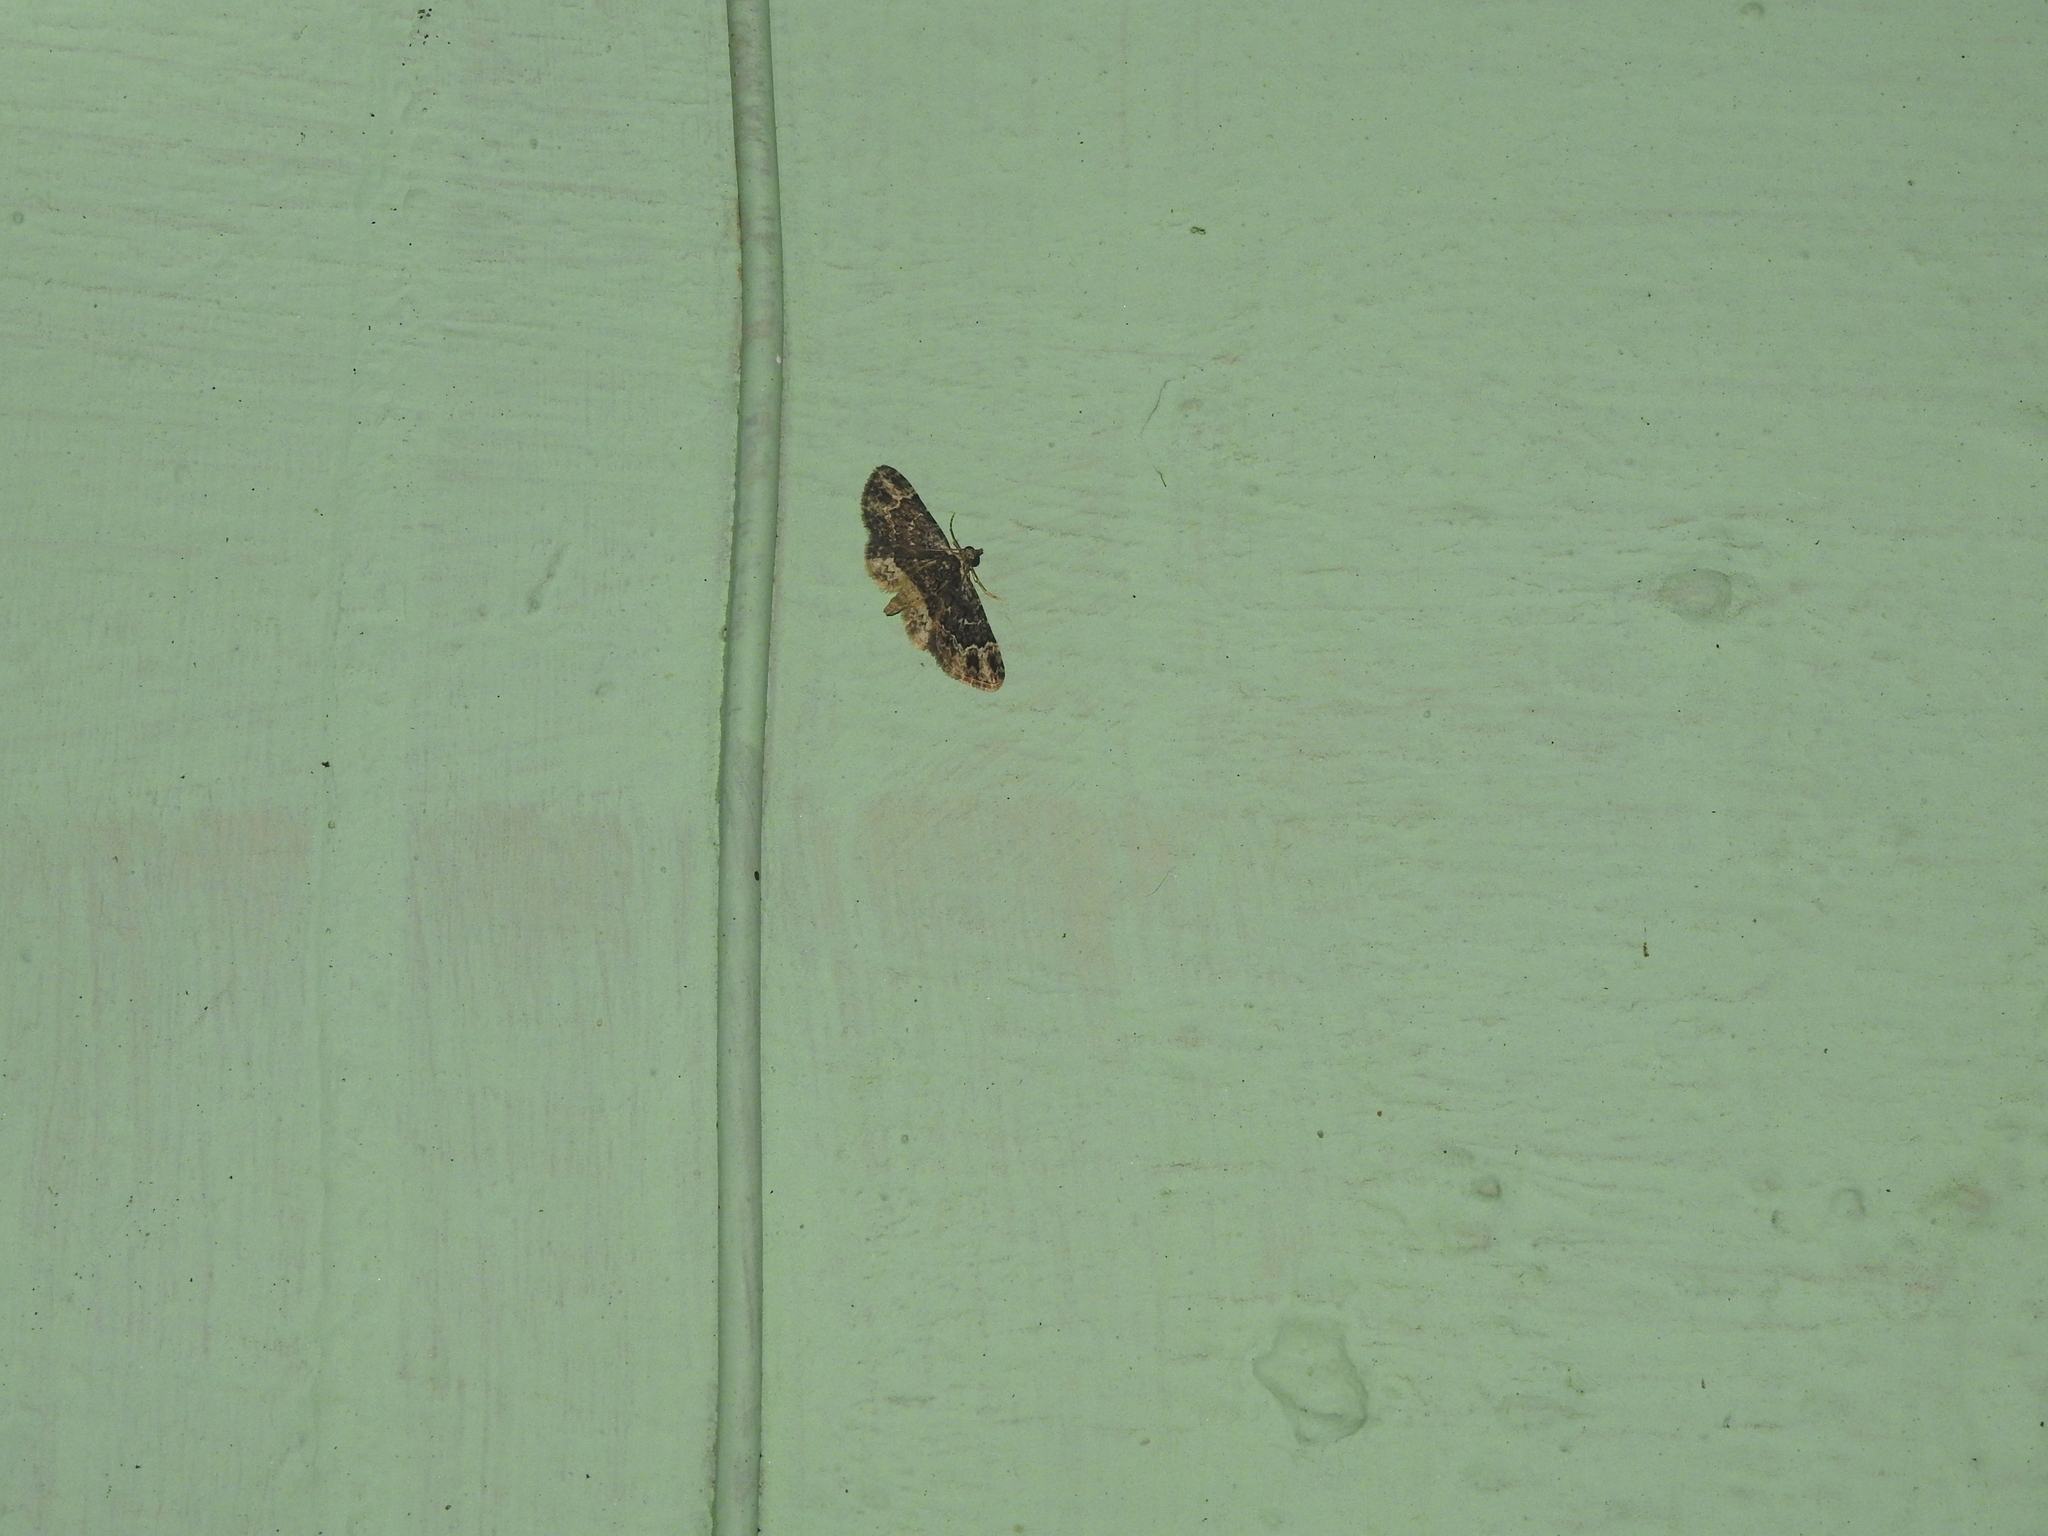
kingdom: Animalia
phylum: Arthropoda
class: Insecta
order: Lepidoptera
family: Geometridae
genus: Bosara
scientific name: Bosara
